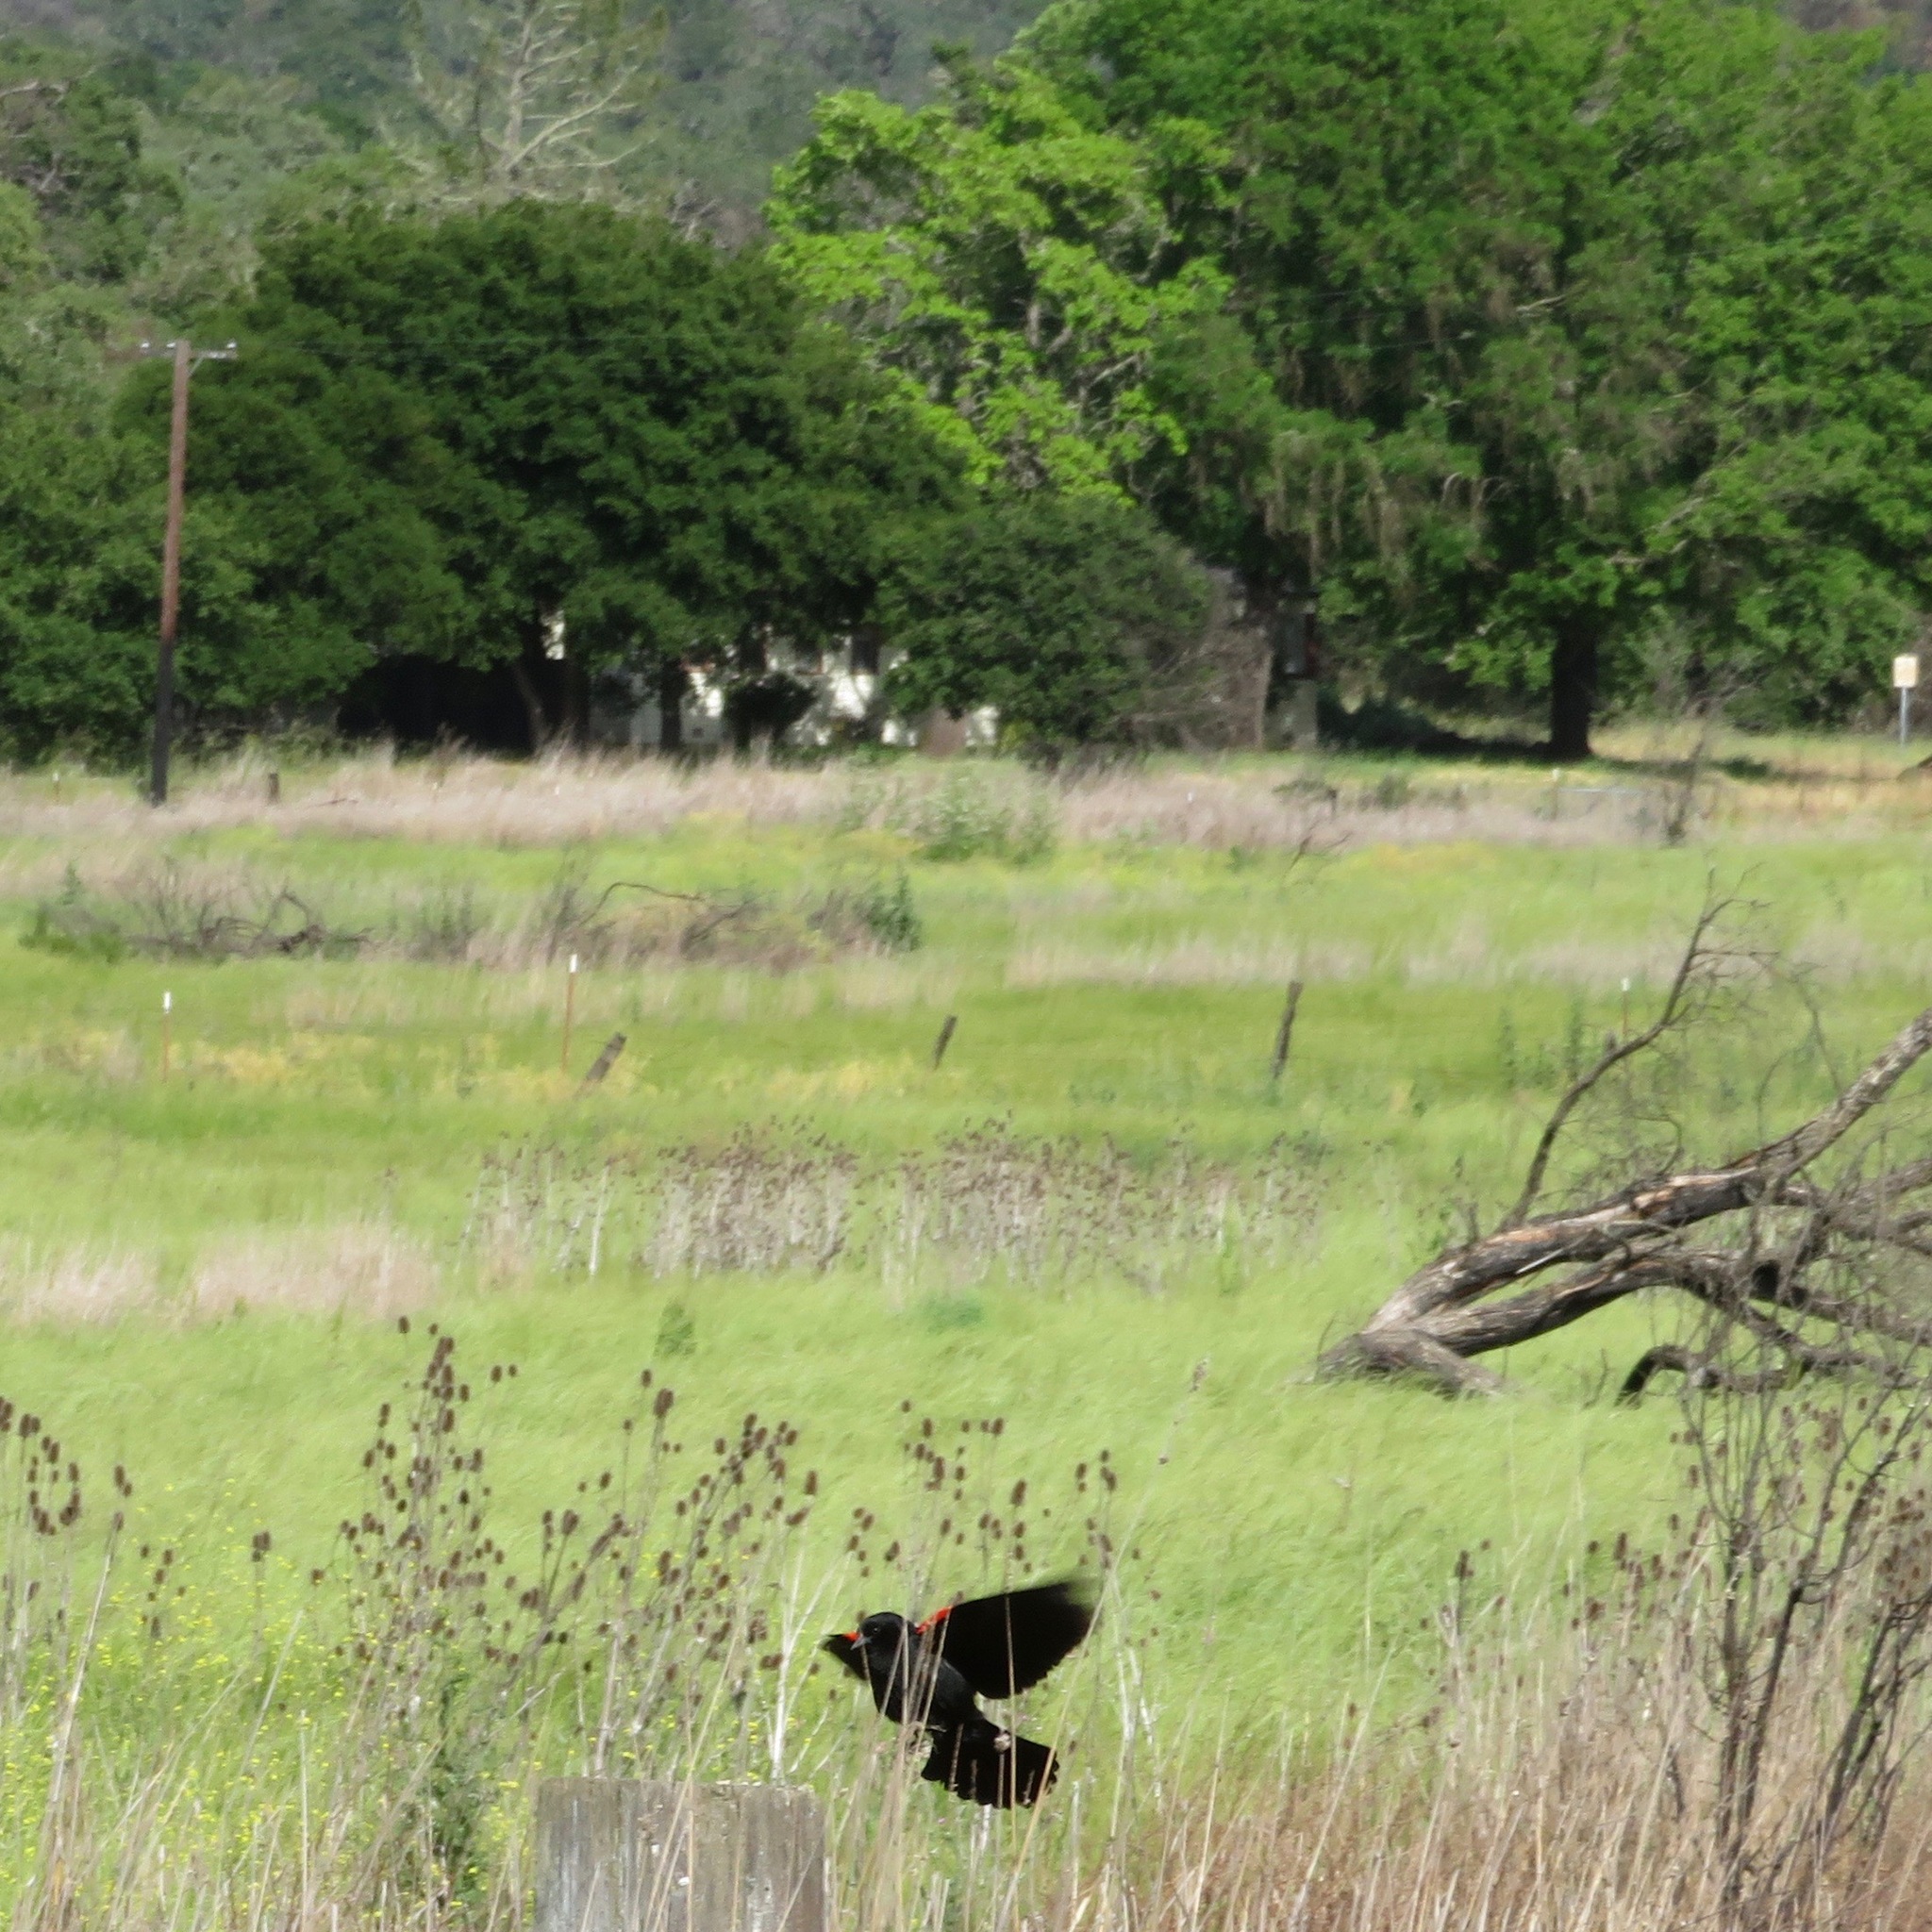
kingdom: Animalia
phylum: Chordata
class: Aves
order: Passeriformes
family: Icteridae
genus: Agelaius
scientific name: Agelaius phoeniceus
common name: Red-winged blackbird
